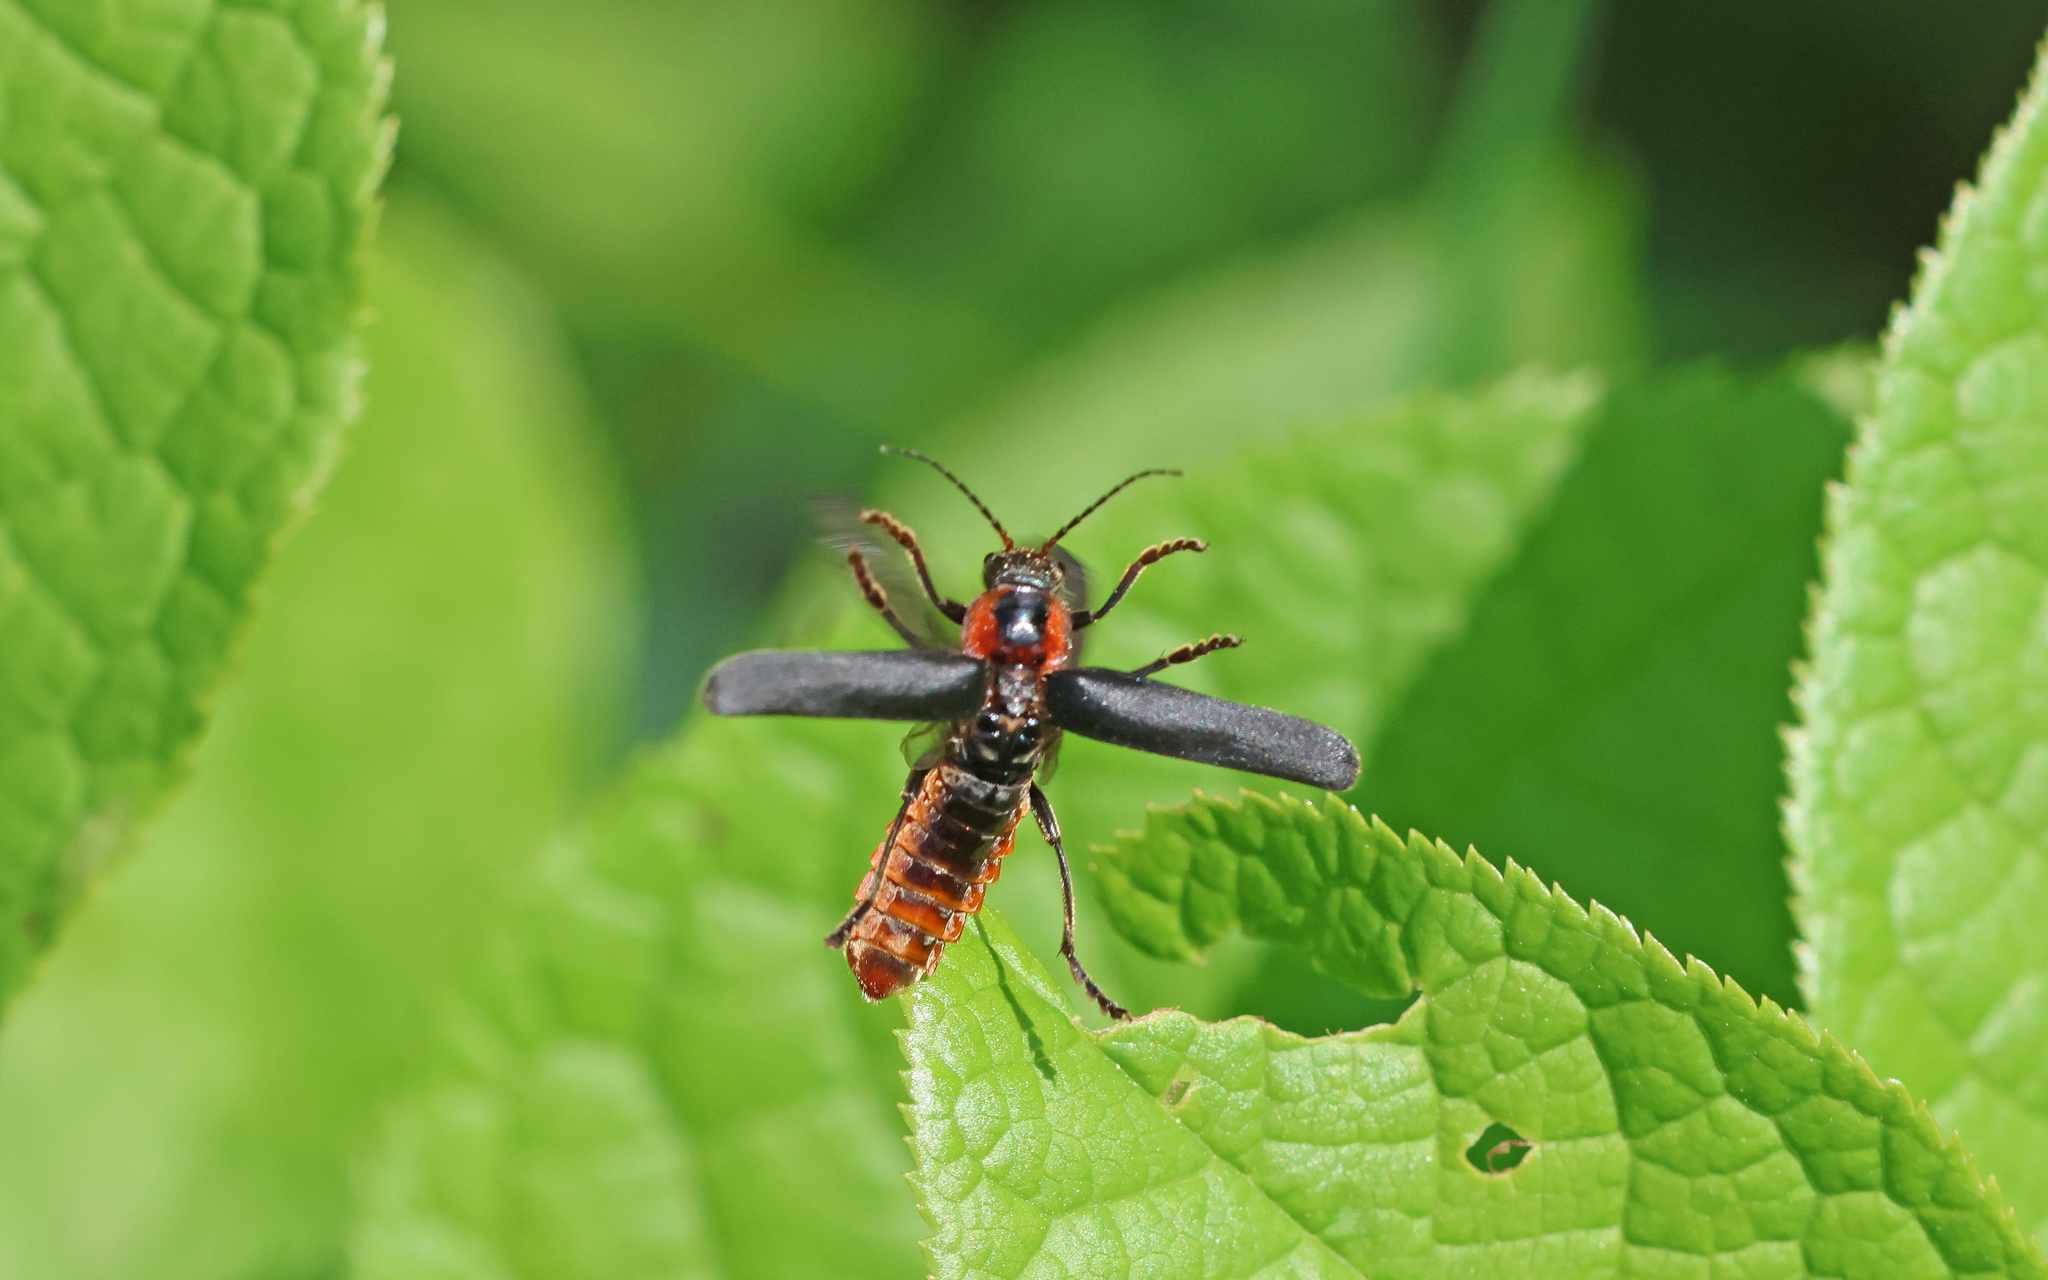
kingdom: Animalia
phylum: Arthropoda
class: Insecta
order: Coleoptera
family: Cantharidae
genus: Cantharis
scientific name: Cantharis fusca
